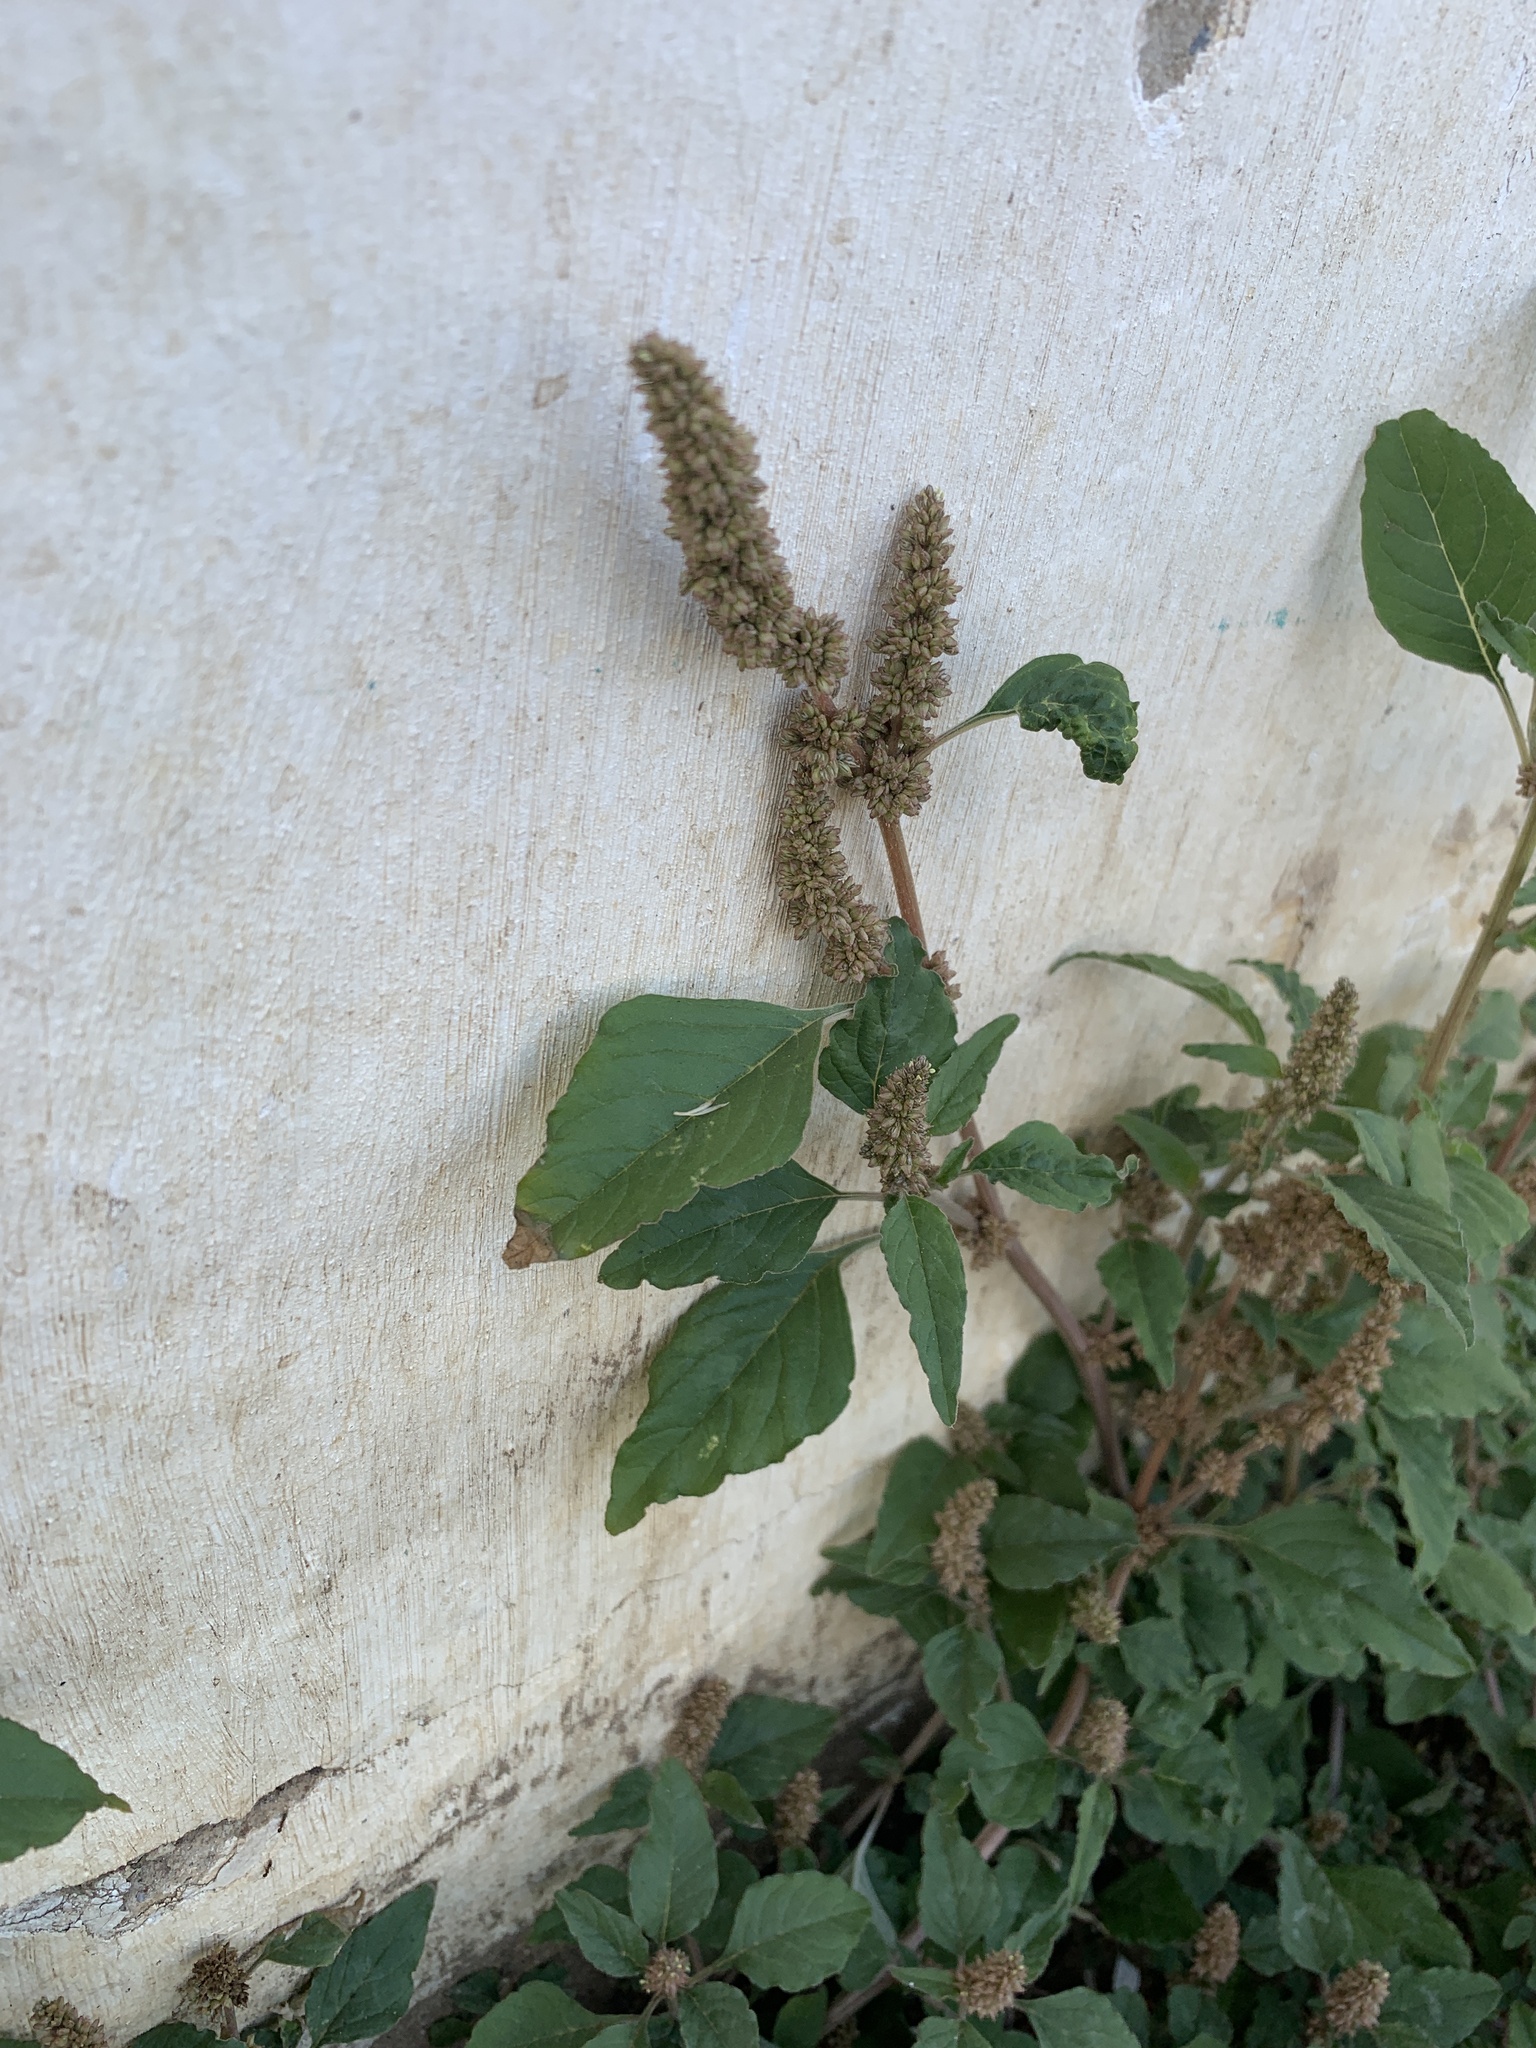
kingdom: Plantae
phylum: Tracheophyta
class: Magnoliopsida
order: Caryophyllales
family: Amaranthaceae
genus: Amaranthus
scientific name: Amaranthus deflexus
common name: Perennial pigweed
